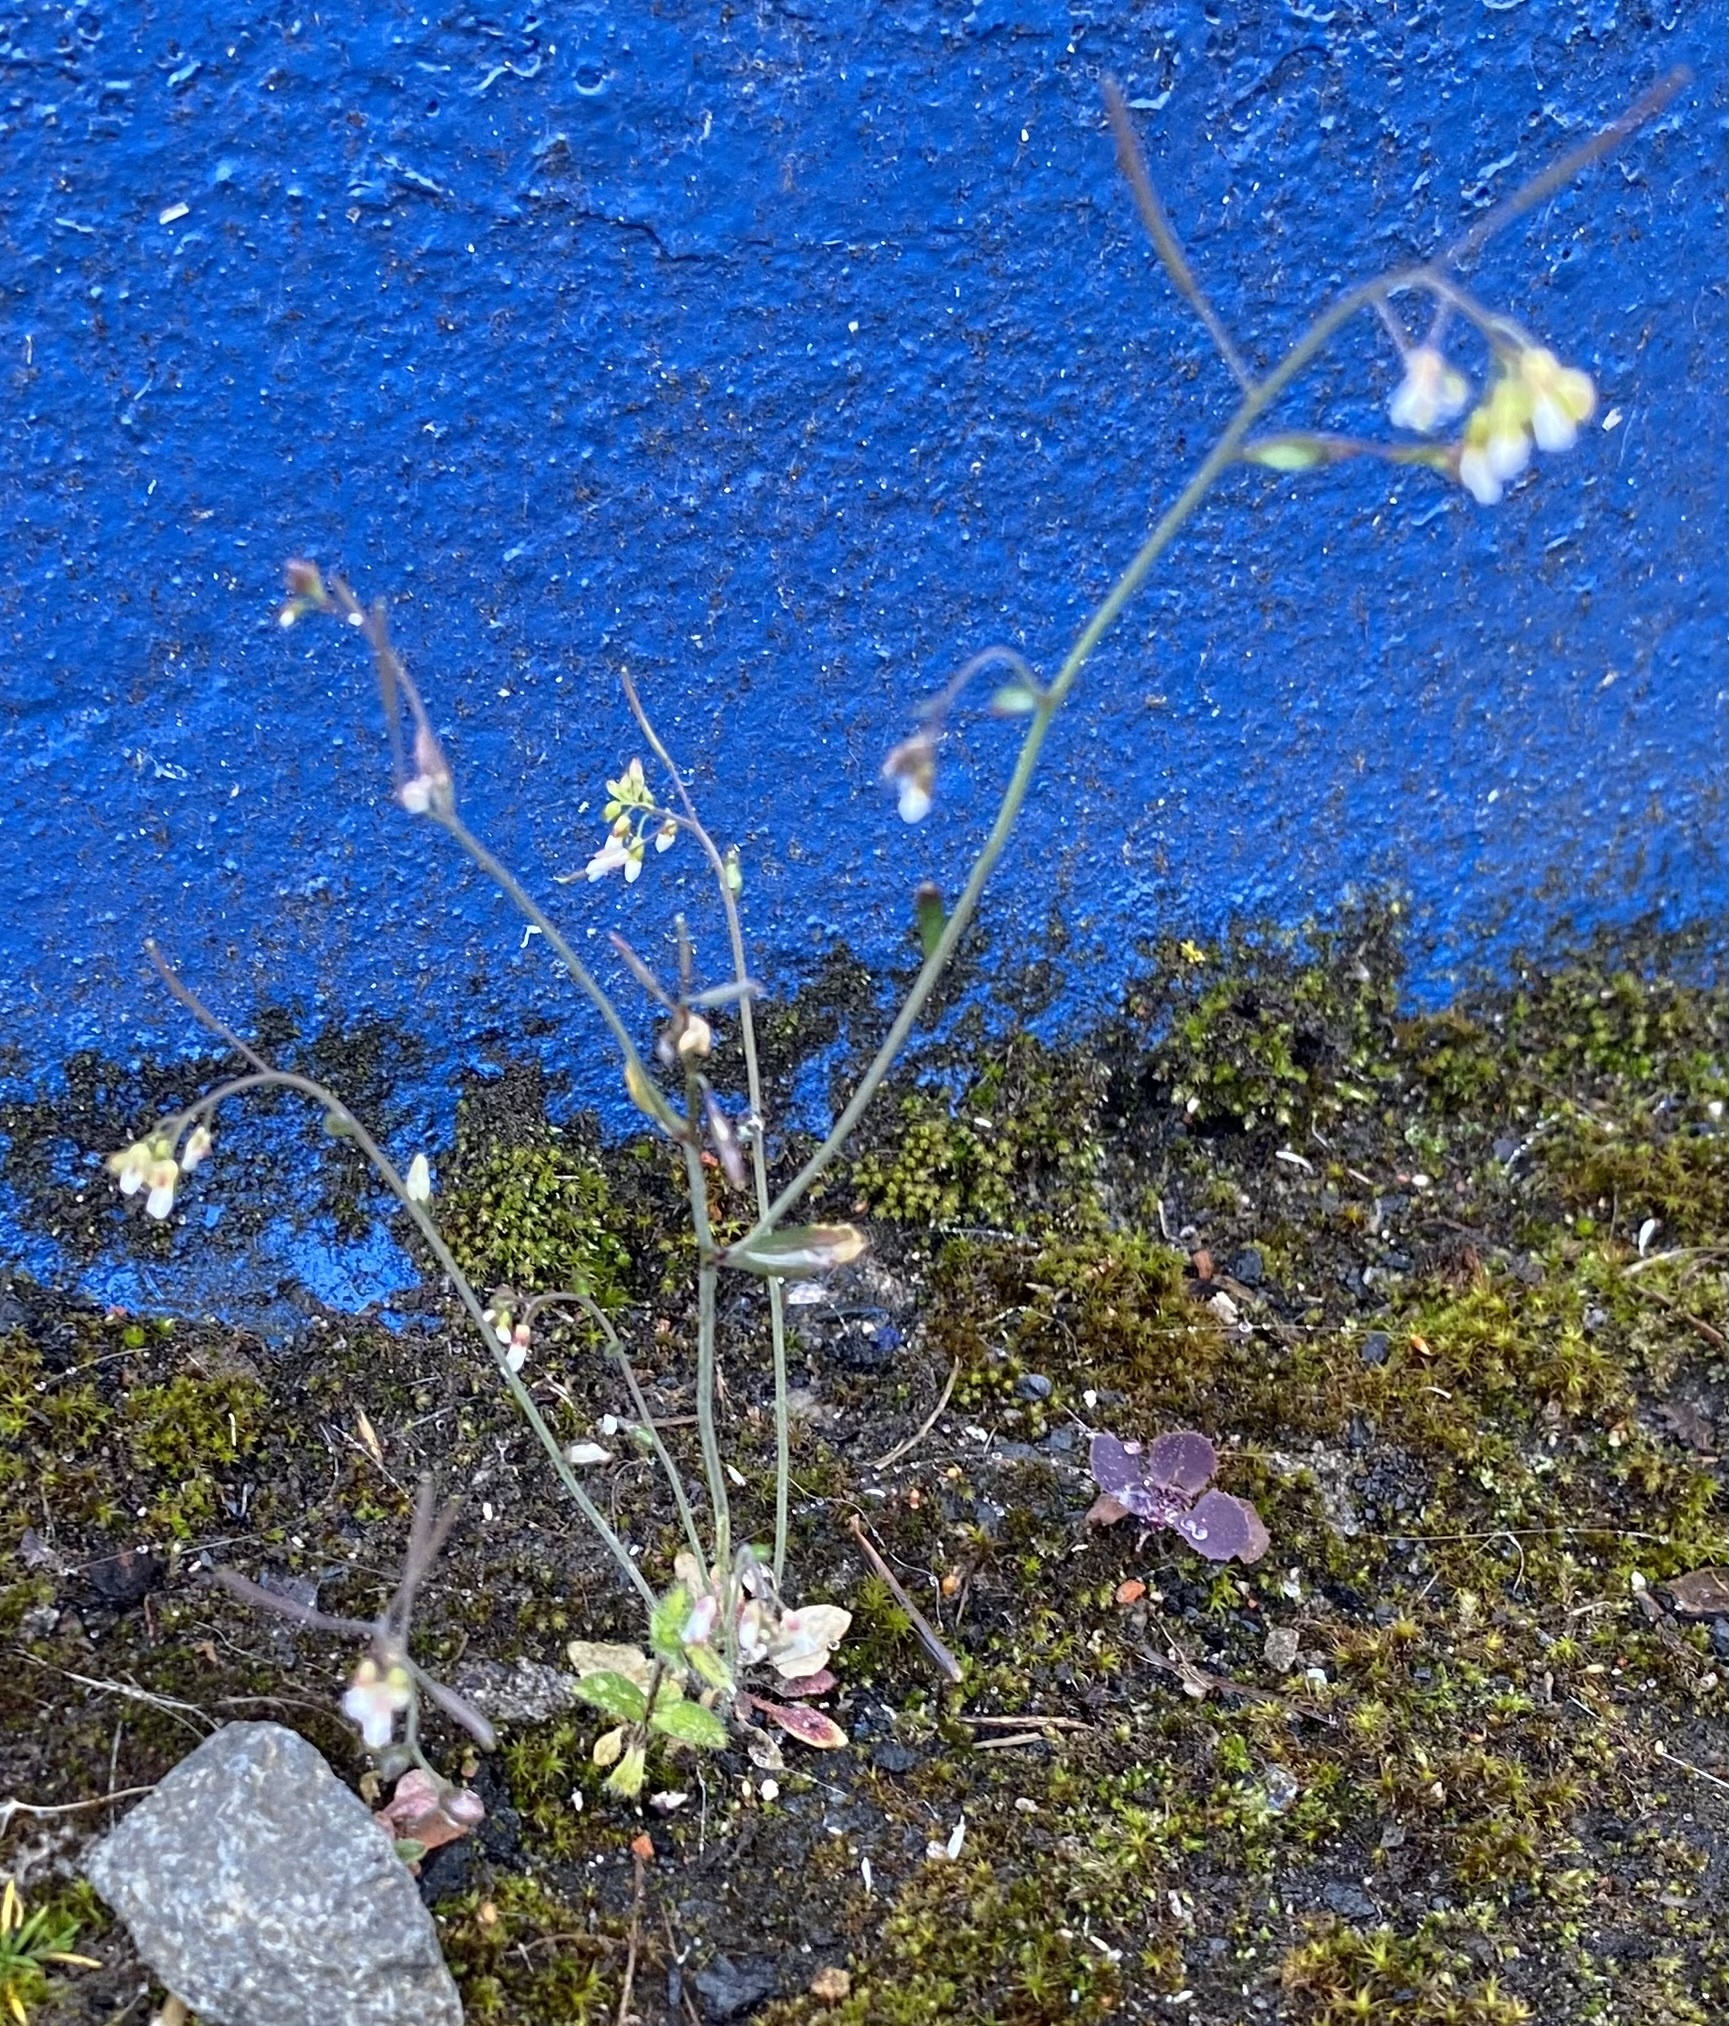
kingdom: Plantae
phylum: Tracheophyta
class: Magnoliopsida
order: Brassicales
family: Brassicaceae
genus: Arabidopsis
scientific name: Arabidopsis thaliana
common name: Thale cress
